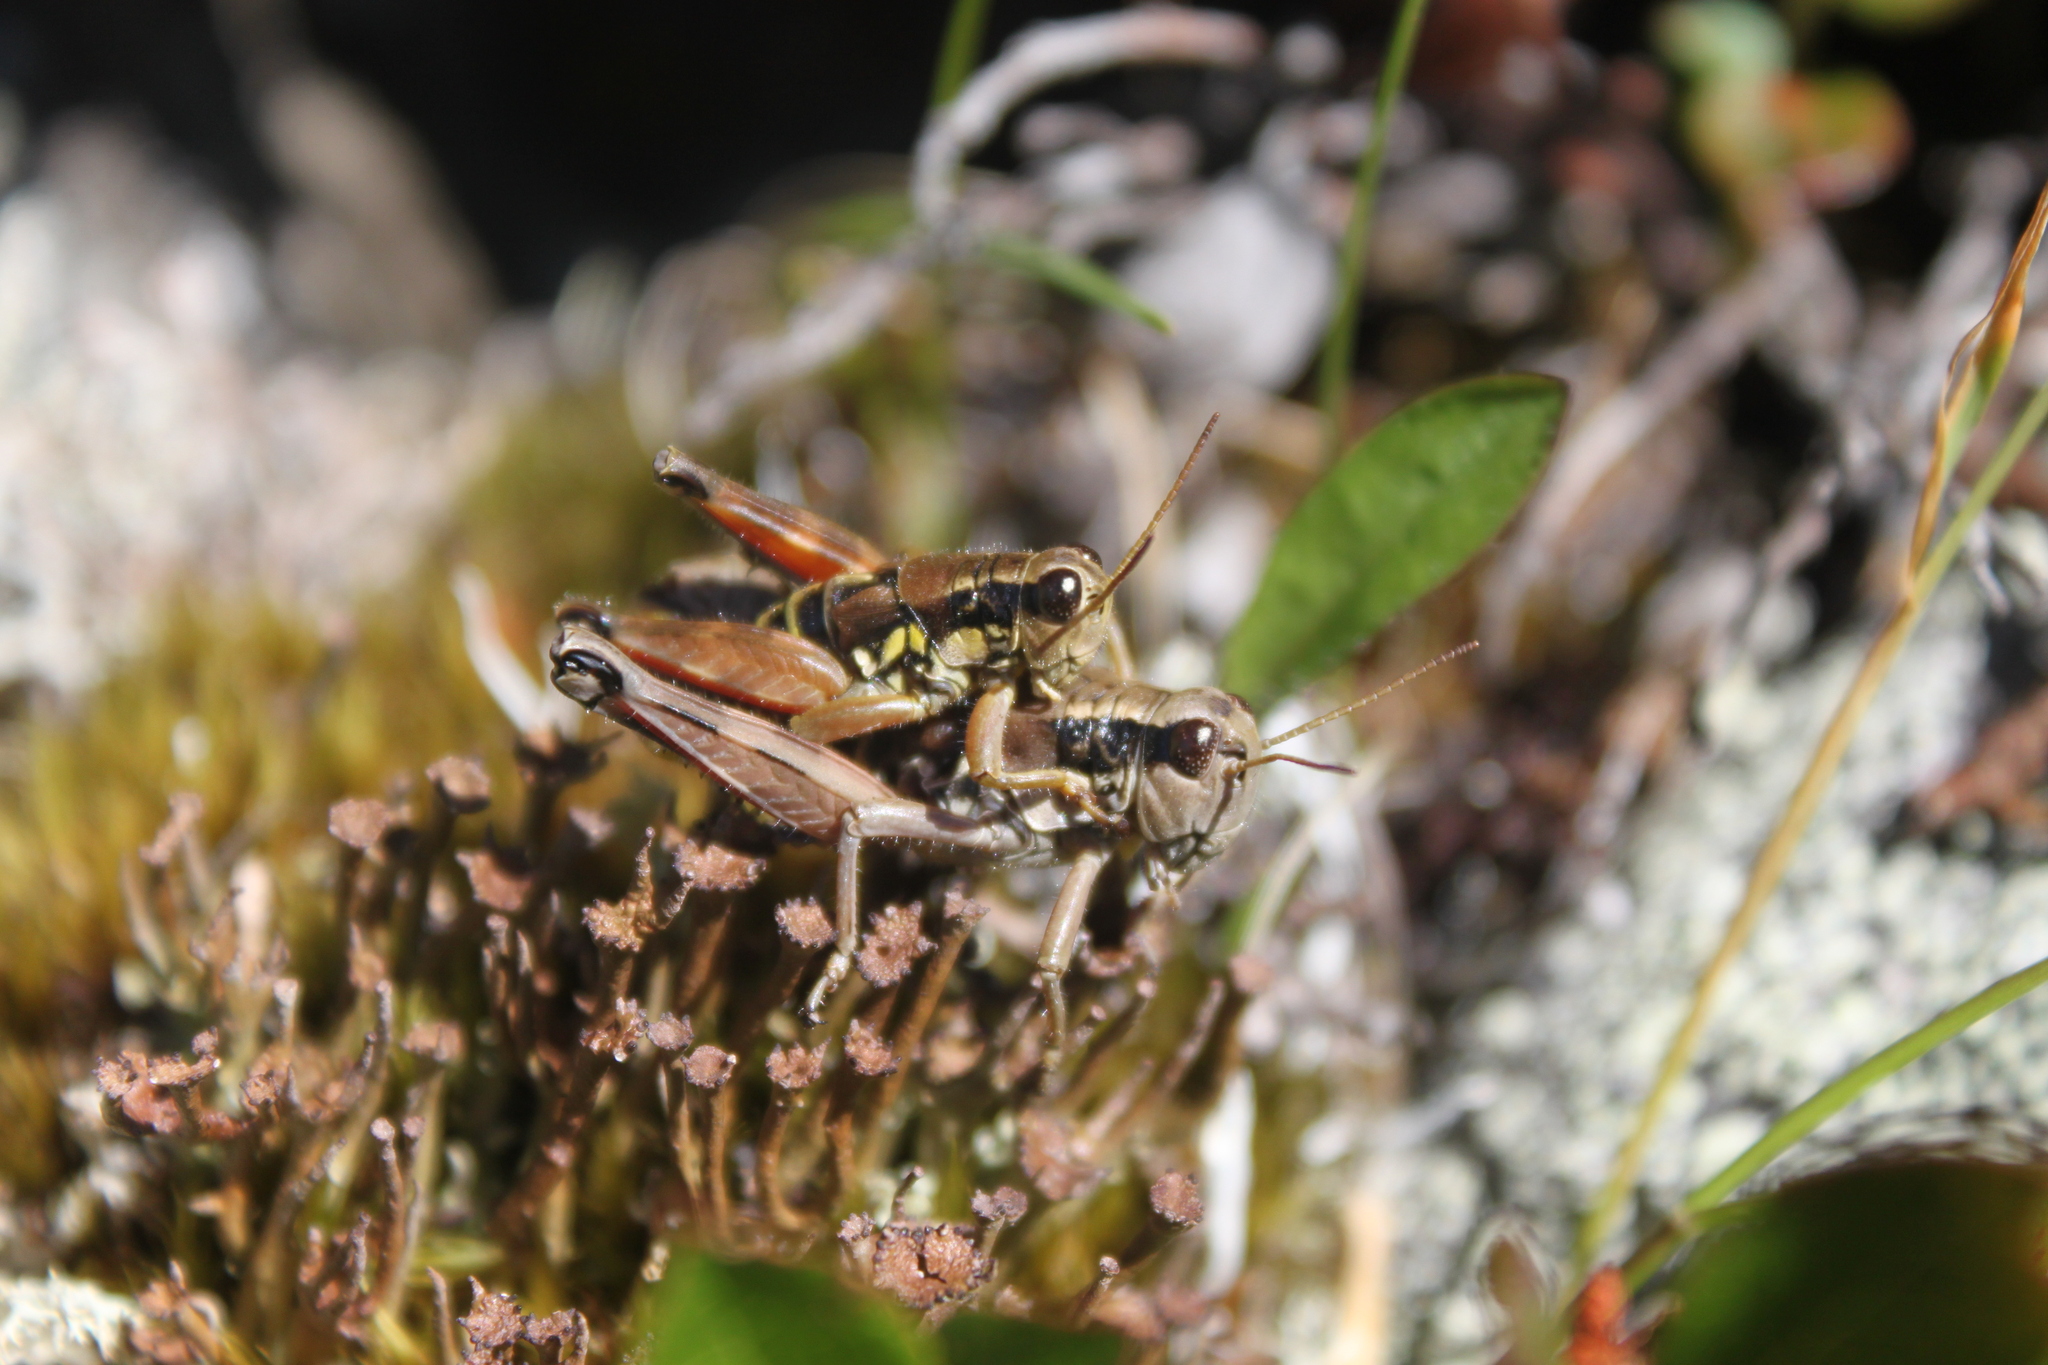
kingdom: Animalia
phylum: Arthropoda
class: Insecta
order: Orthoptera
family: Acrididae
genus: Podisma
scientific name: Podisma pedestris
